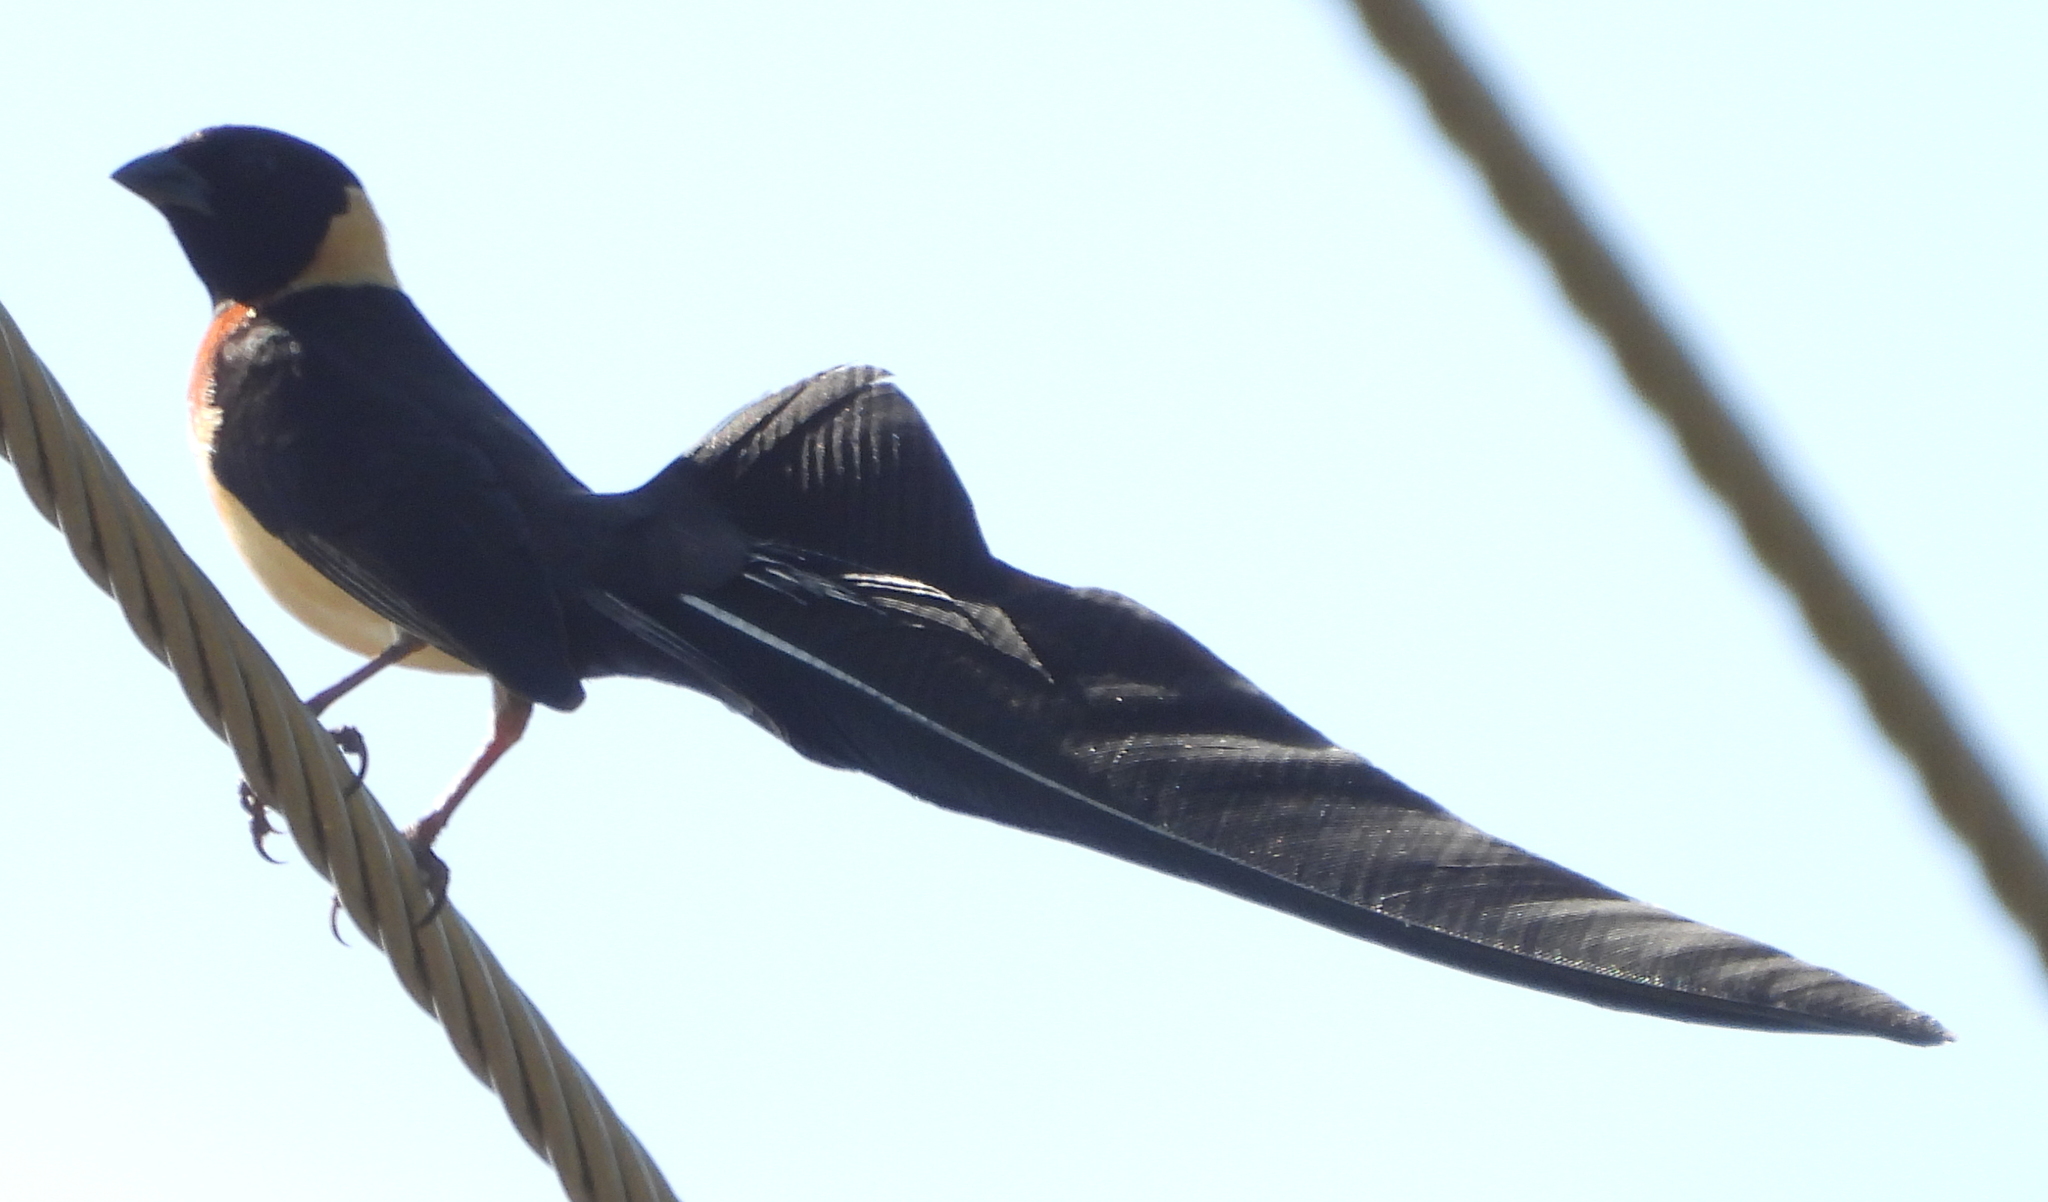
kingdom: Animalia
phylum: Chordata
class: Aves
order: Passeriformes
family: Viduidae
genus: Vidua
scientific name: Vidua paradisaea
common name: Long-tailed paradise whydah
